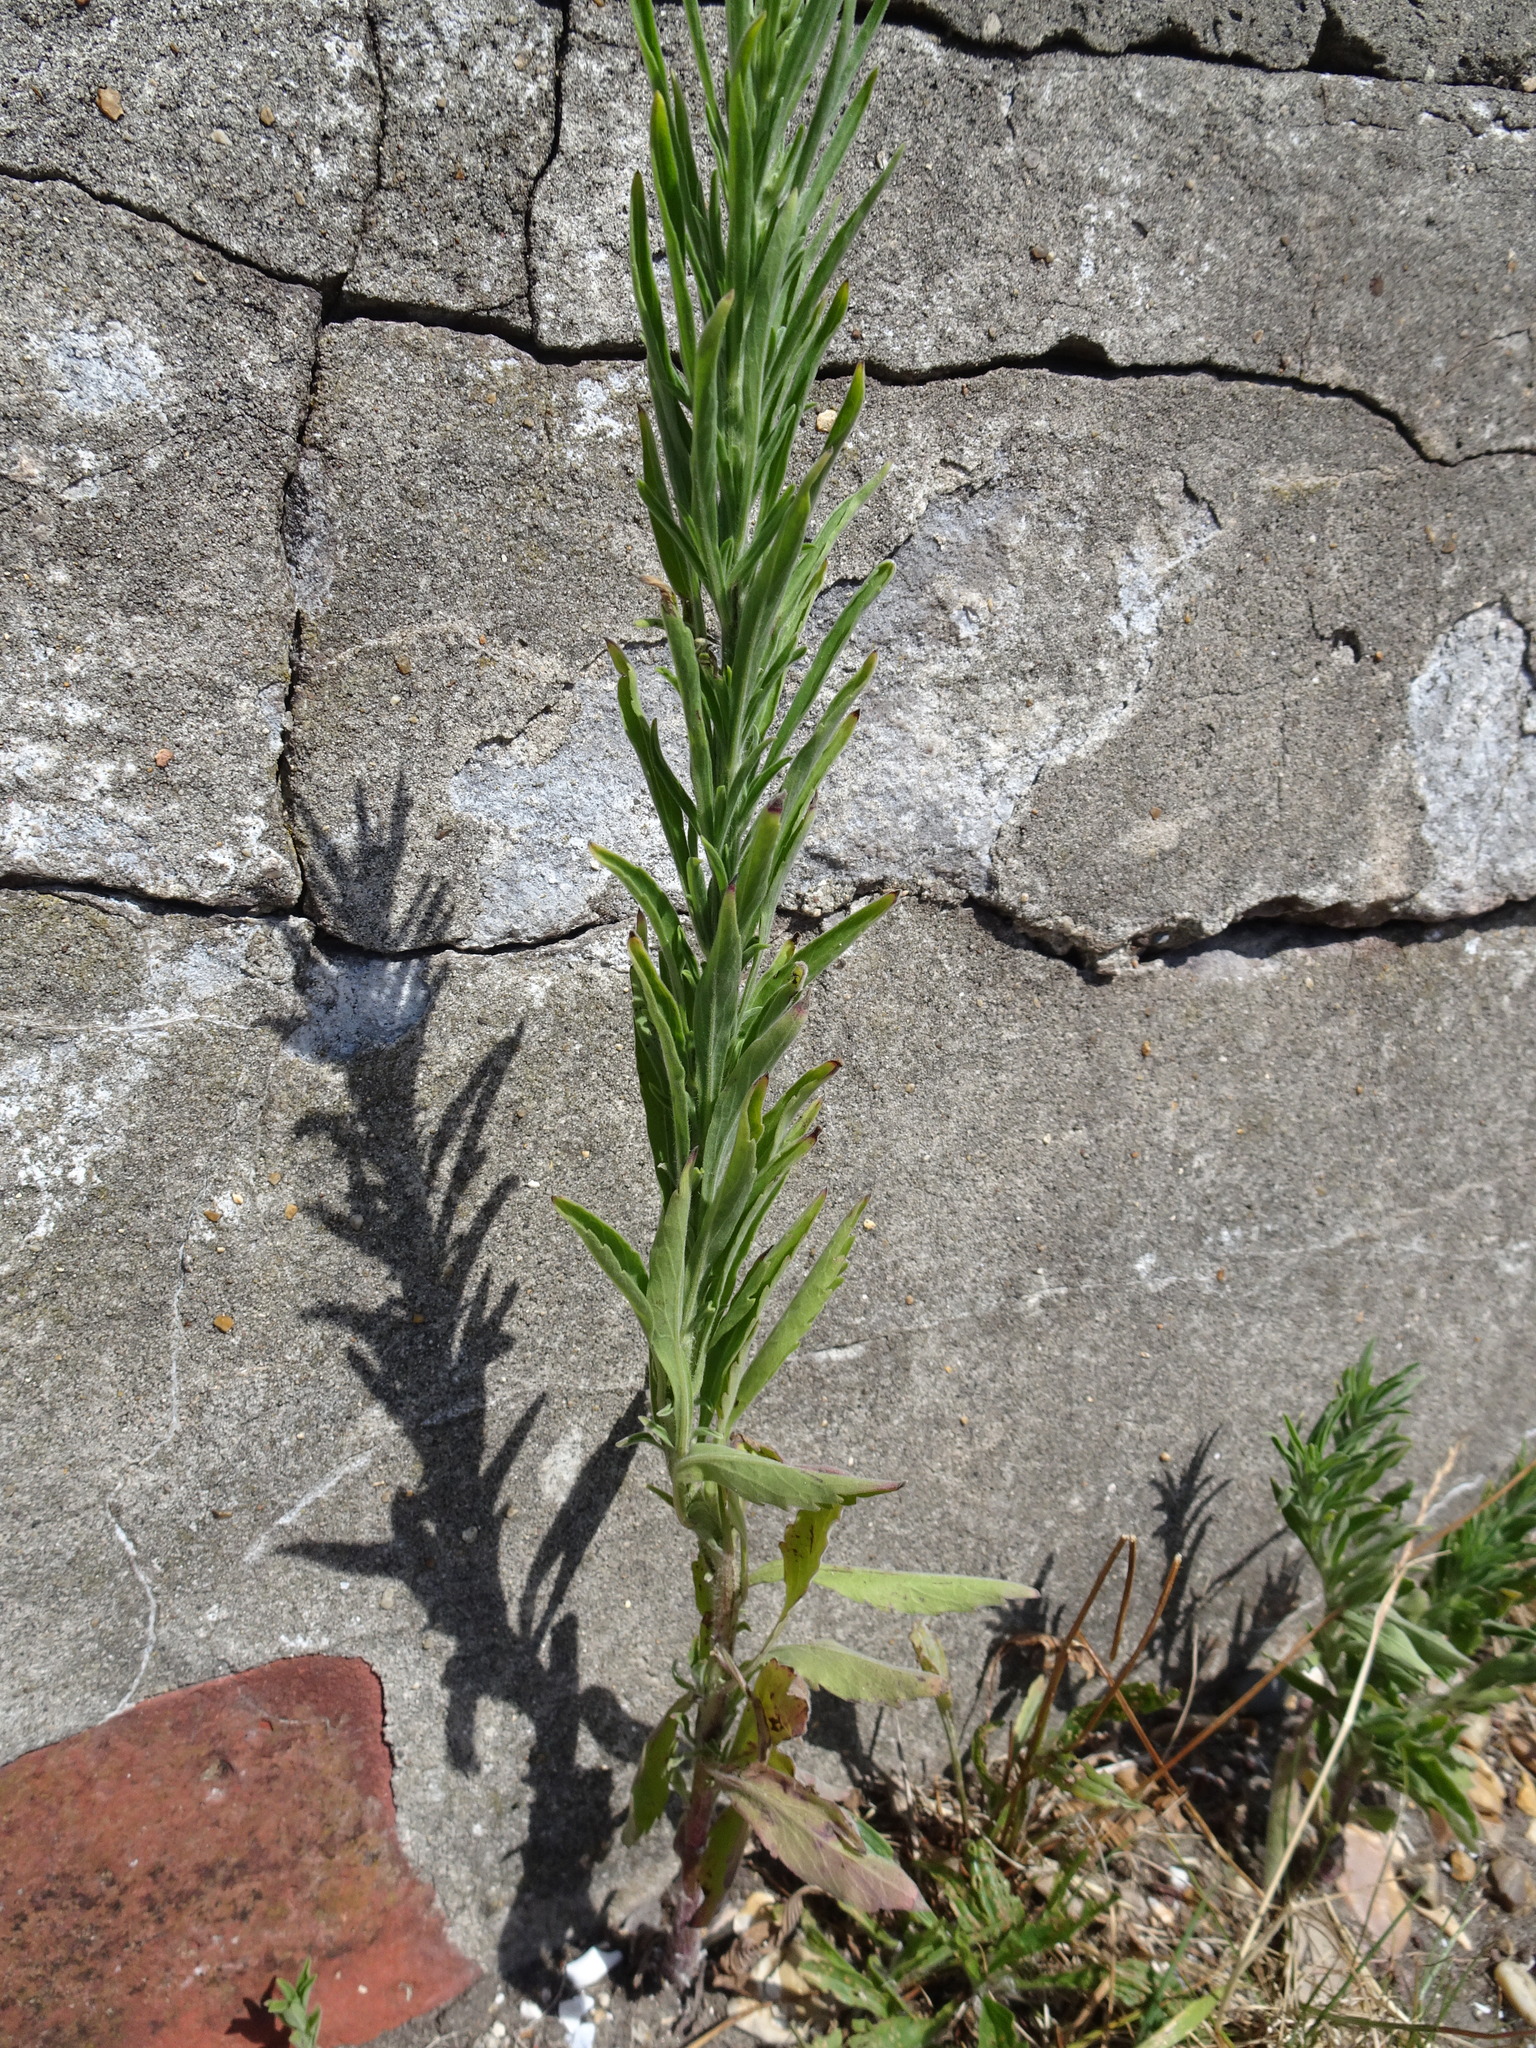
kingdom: Plantae
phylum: Tracheophyta
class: Magnoliopsida
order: Asterales
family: Asteraceae
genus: Erigeron
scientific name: Erigeron sumatrensis
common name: Daisy
